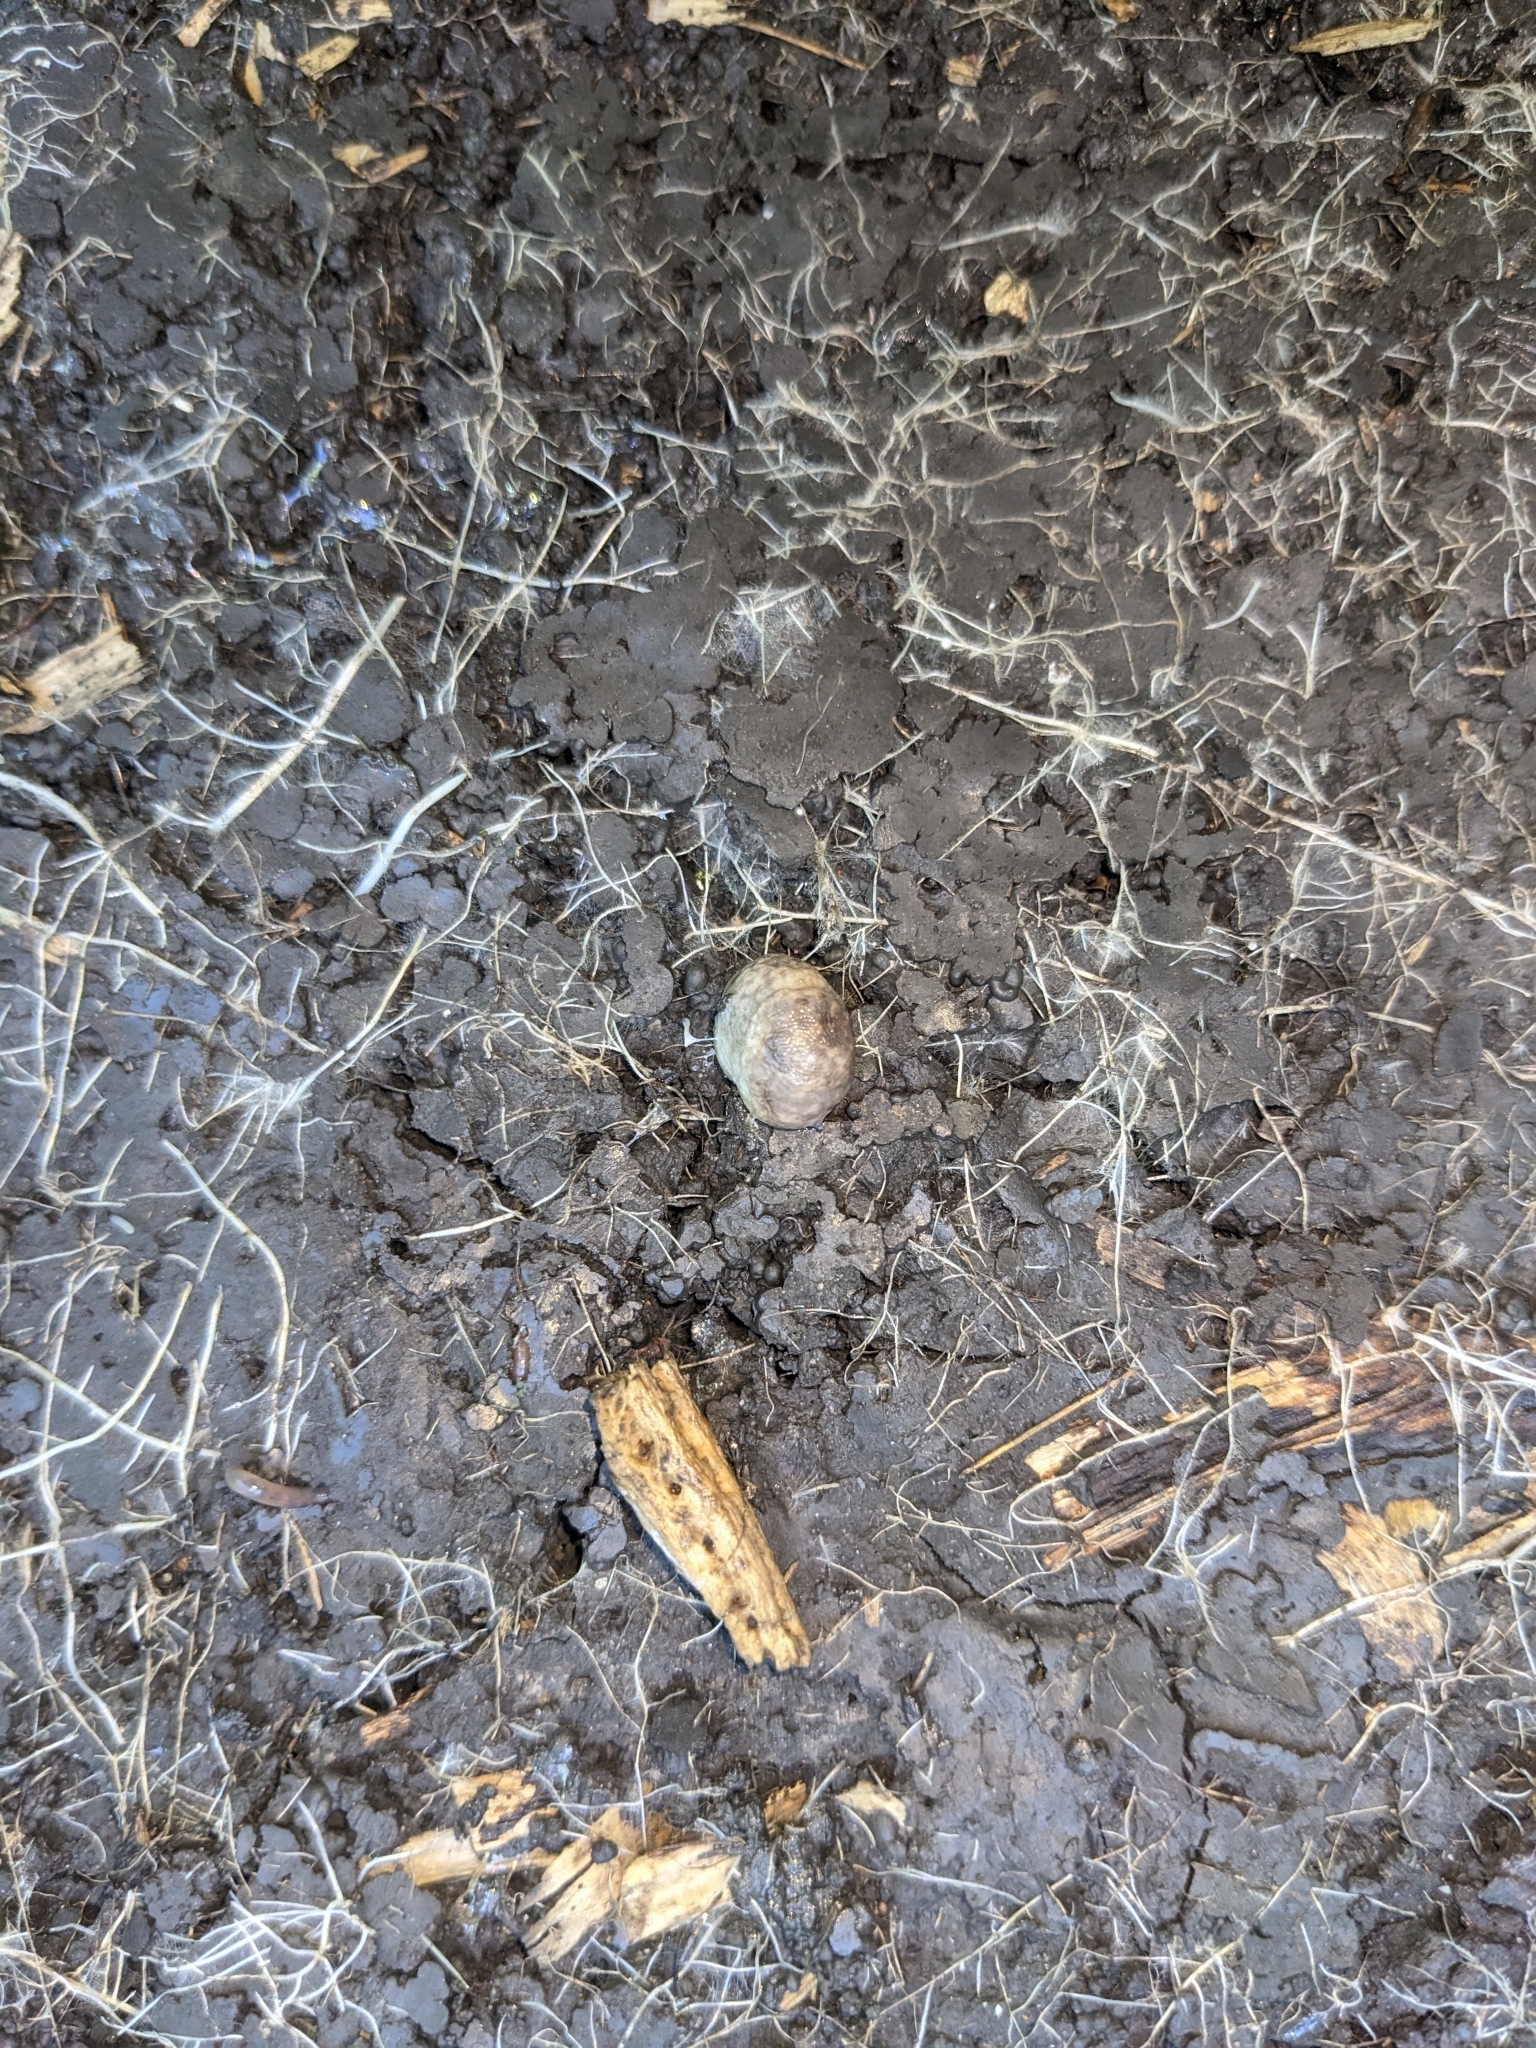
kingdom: Animalia
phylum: Mollusca
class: Gastropoda
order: Stylommatophora
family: Agriolimacidae
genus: Deroceras
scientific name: Deroceras reticulatum
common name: Gray field slug
